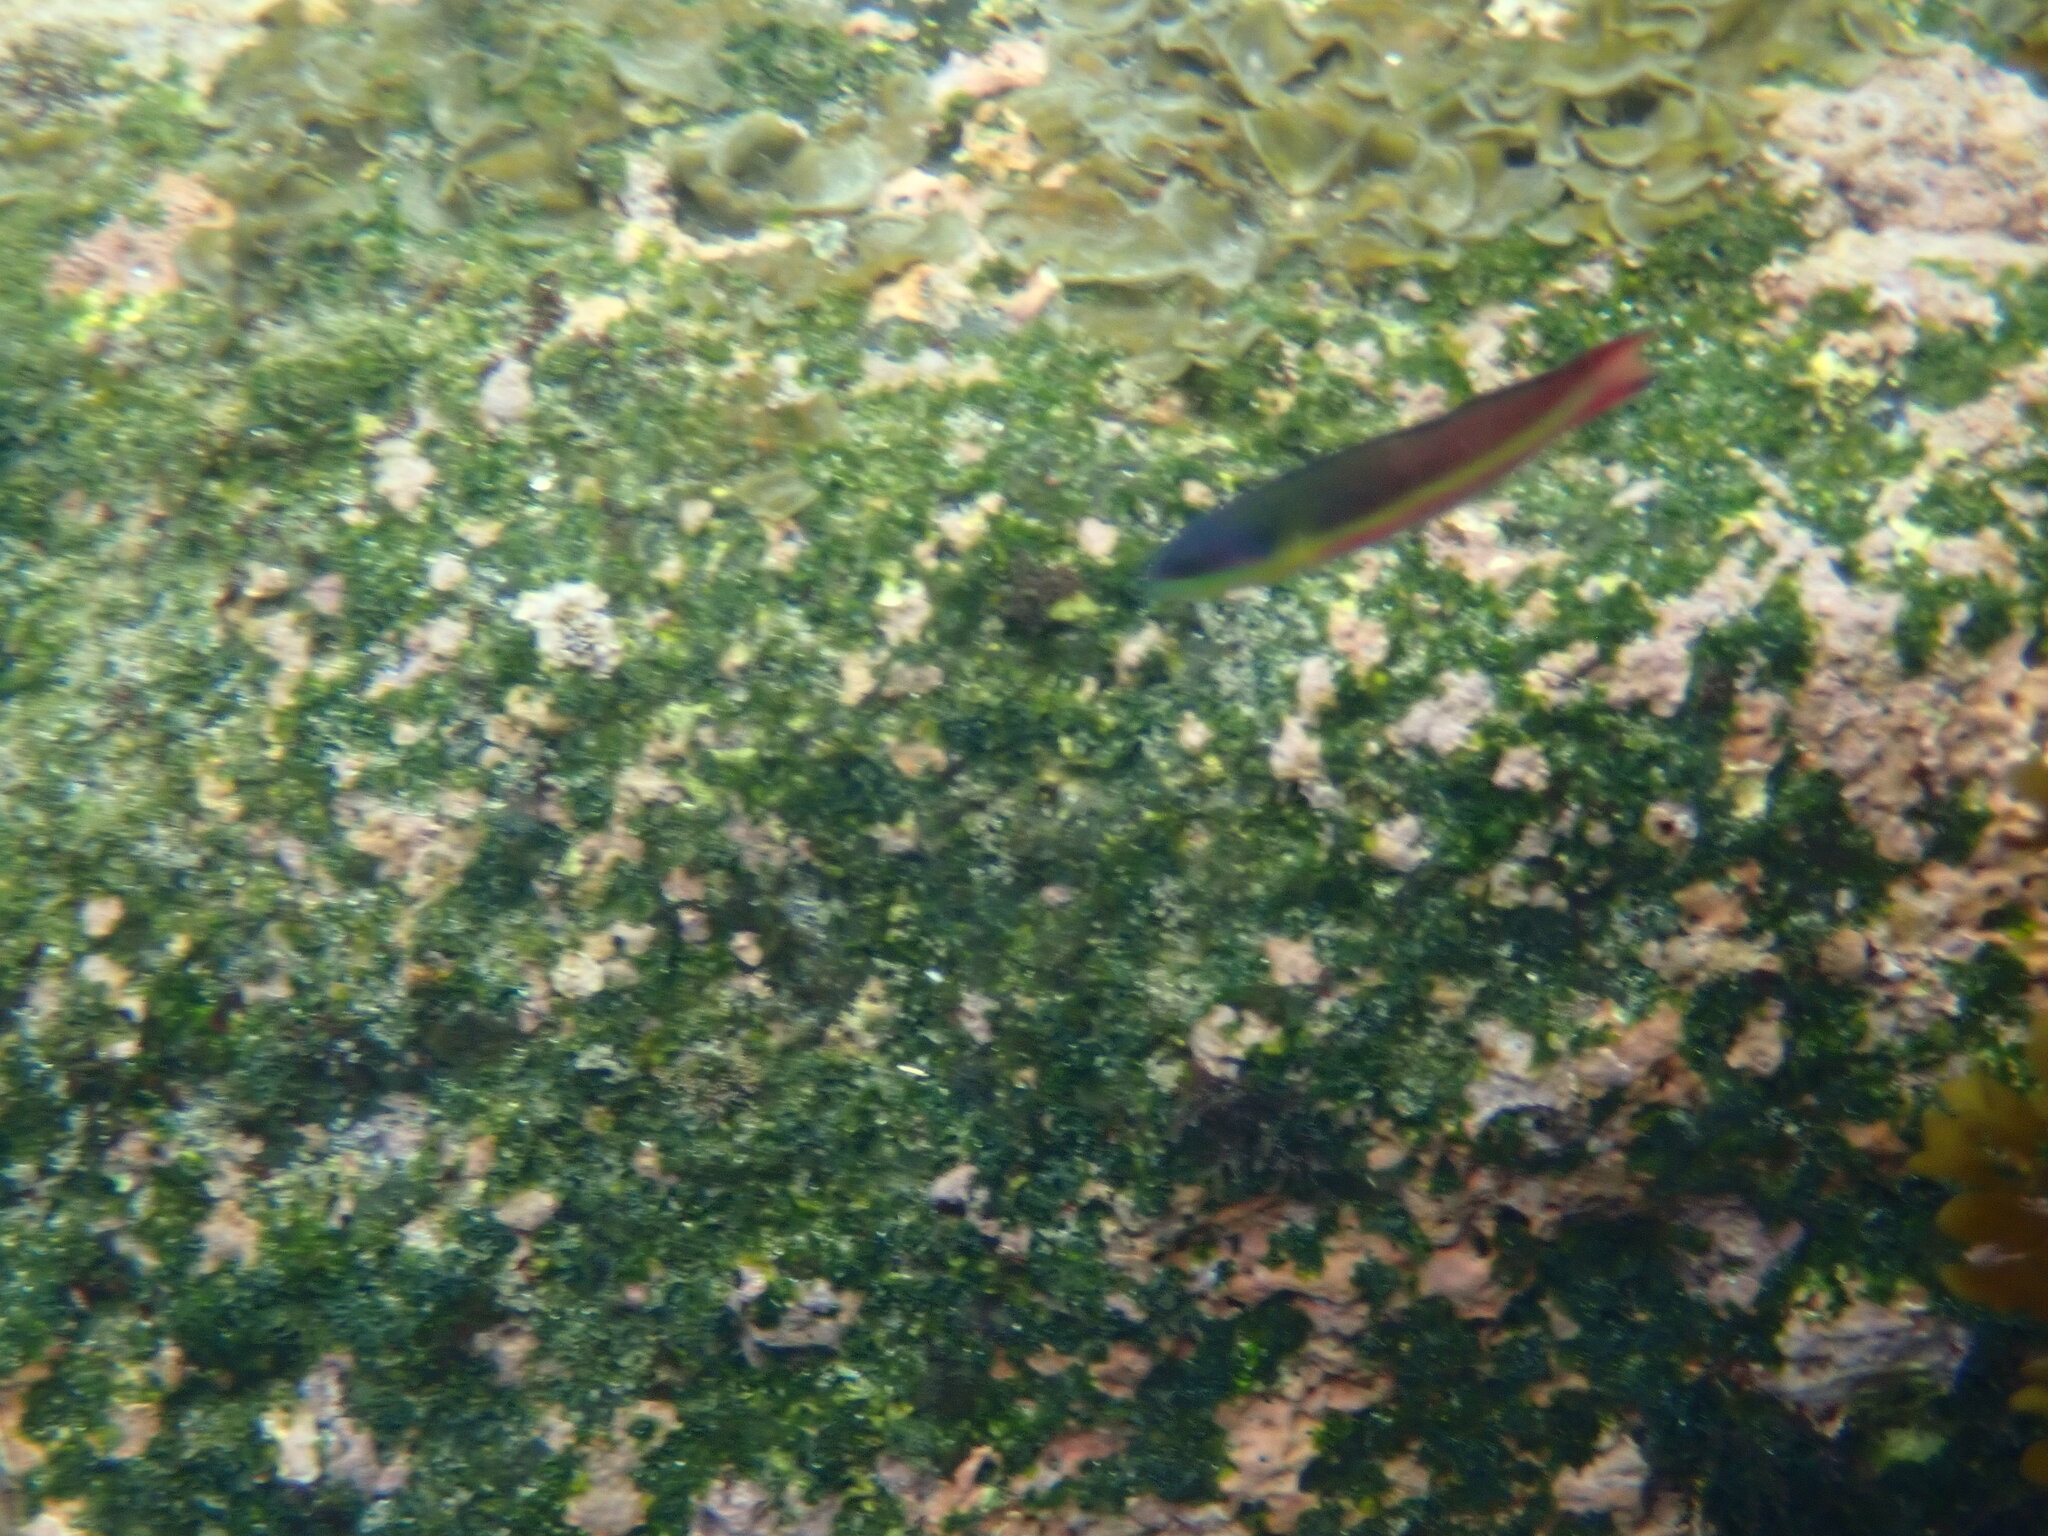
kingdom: Animalia
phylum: Chordata
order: Perciformes
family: Labridae
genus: Thalassoma
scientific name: Thalassoma lucasanum
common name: Cortez rainbow wrasse
